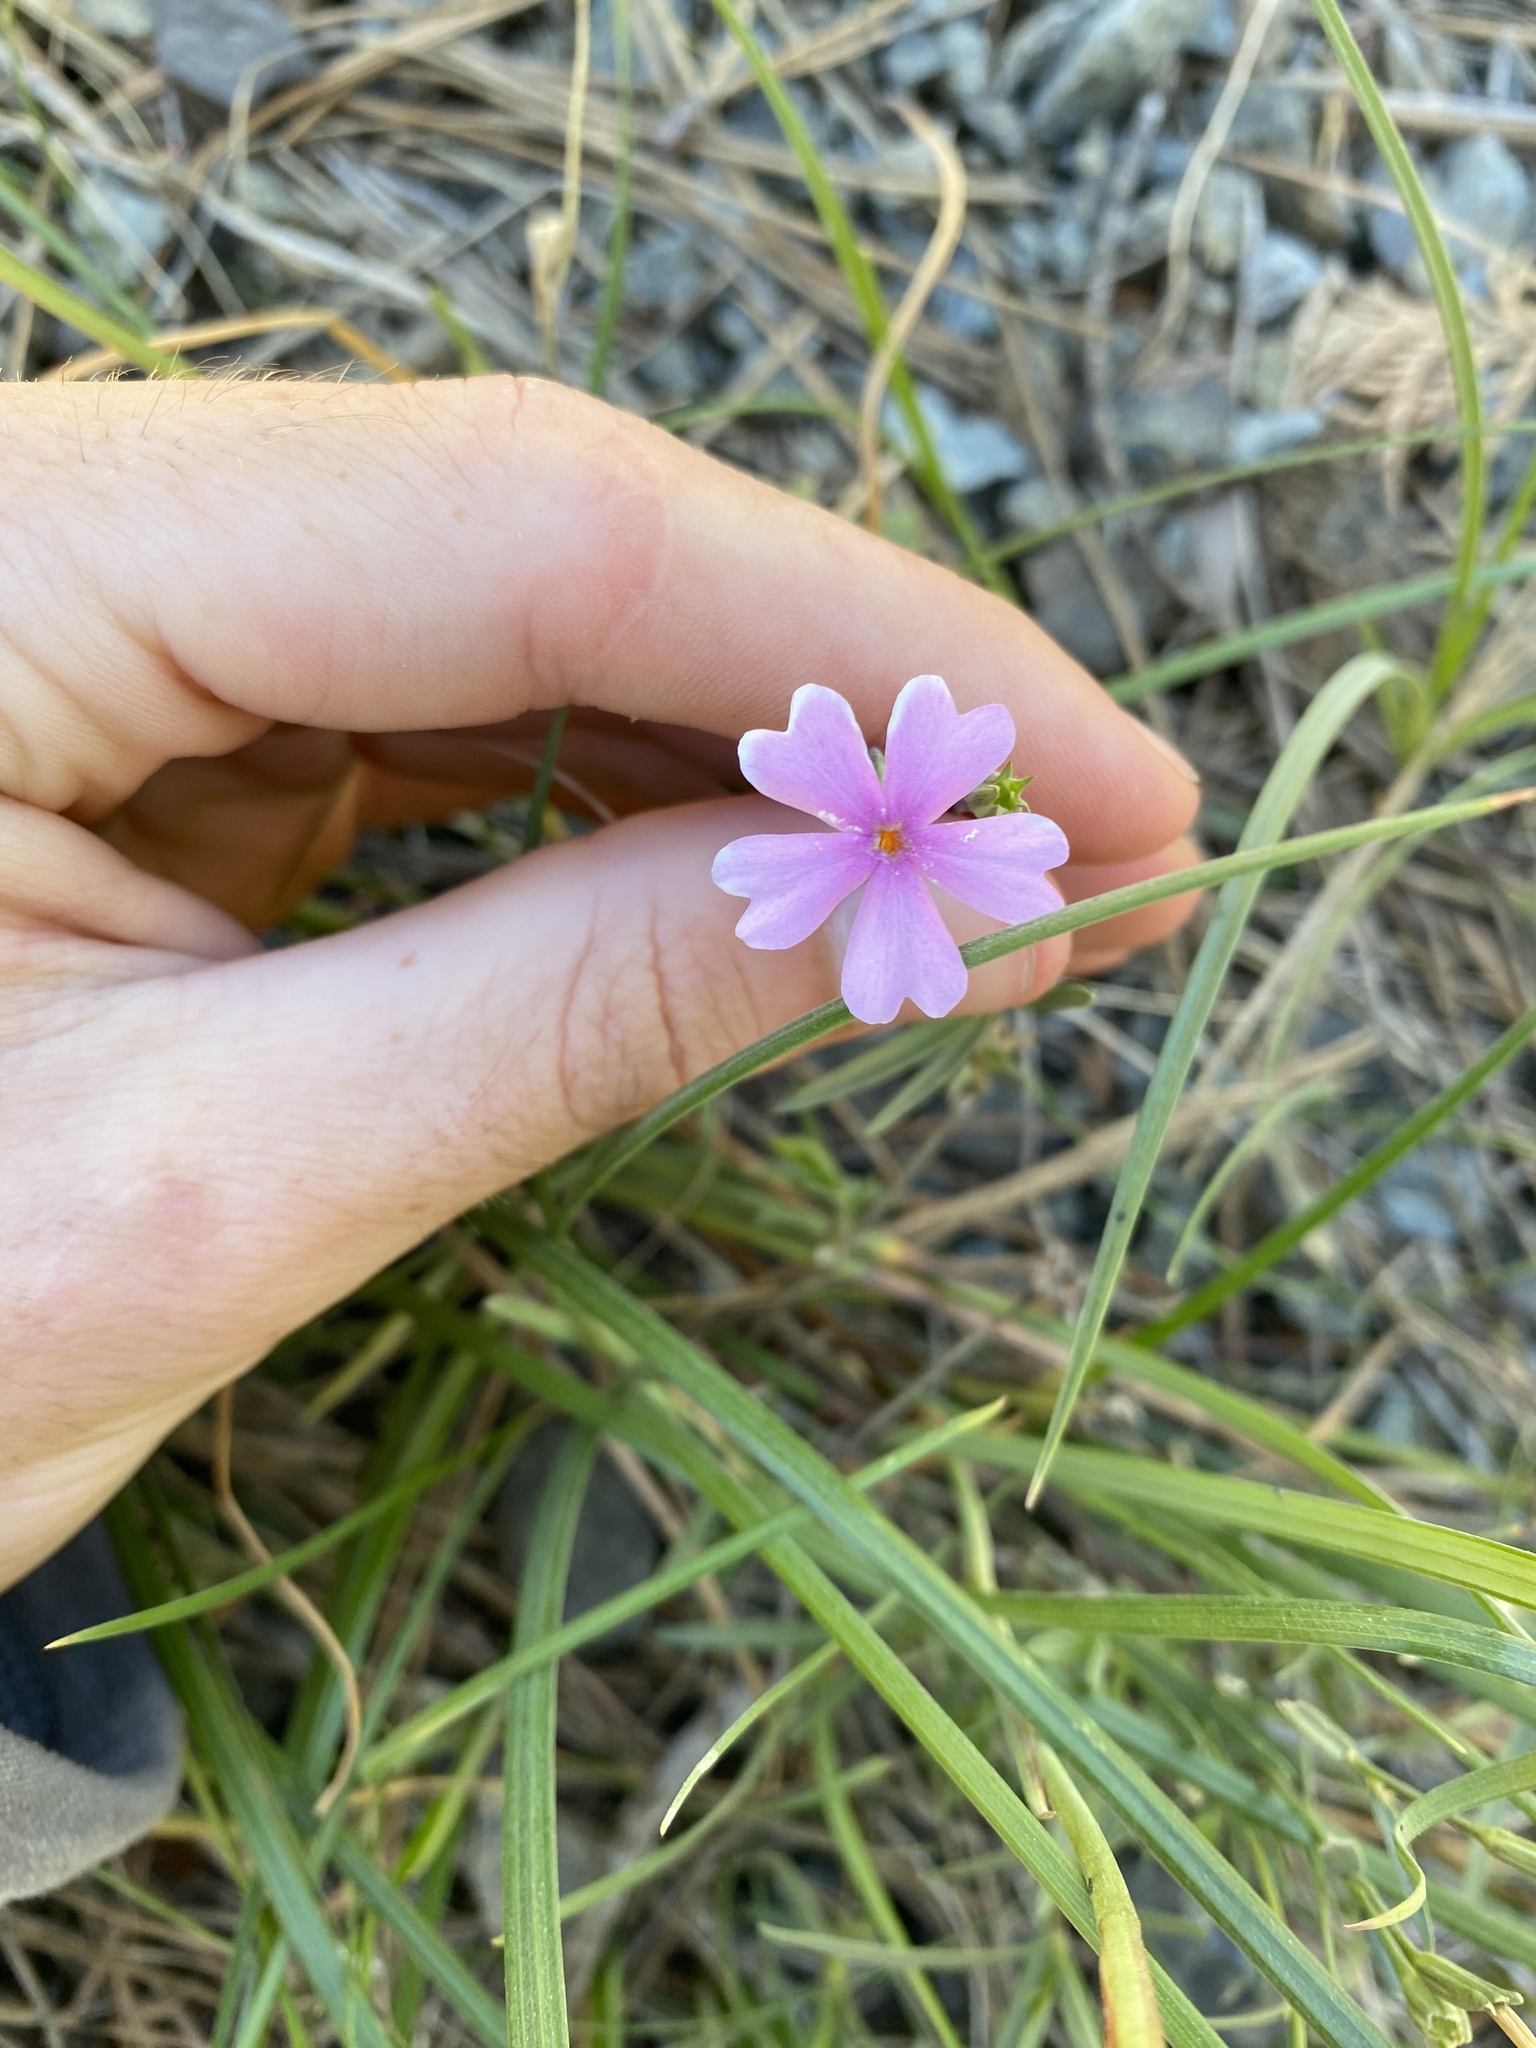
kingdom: Plantae
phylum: Tracheophyta
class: Magnoliopsida
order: Ericales
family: Polemoniaceae
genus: Phlox
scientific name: Phlox speciosa
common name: Bush phlox
